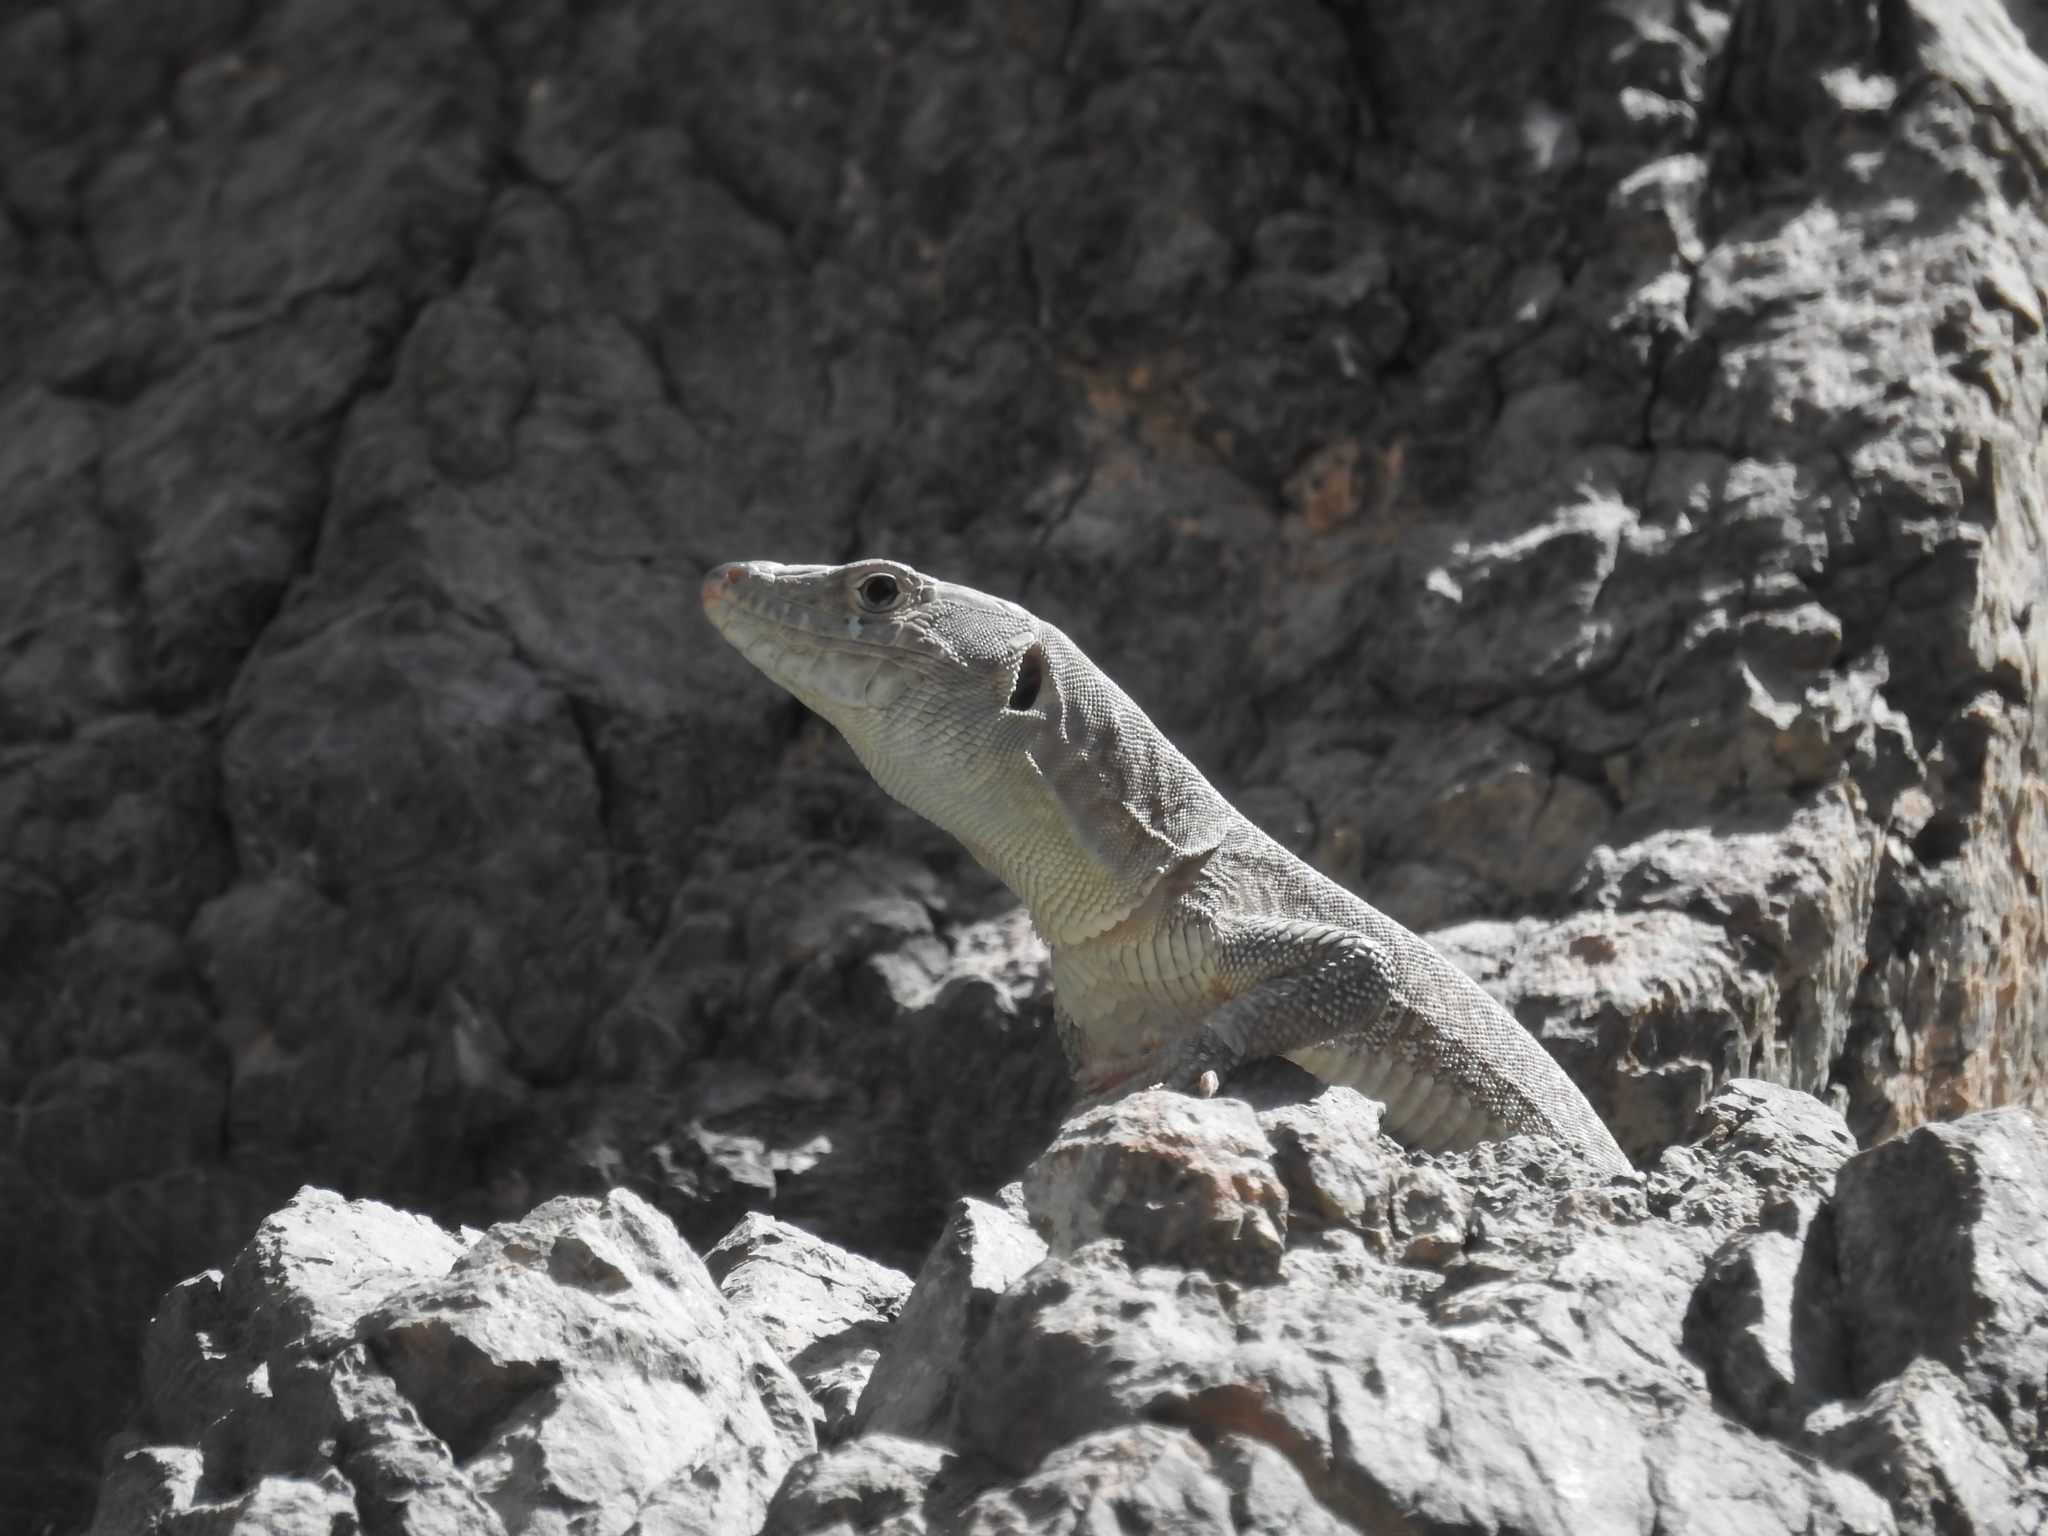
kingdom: Animalia
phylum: Chordata
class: Squamata
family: Lacertidae
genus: Omanosaura
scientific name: Omanosaura jayakari
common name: Jayakar lizard
